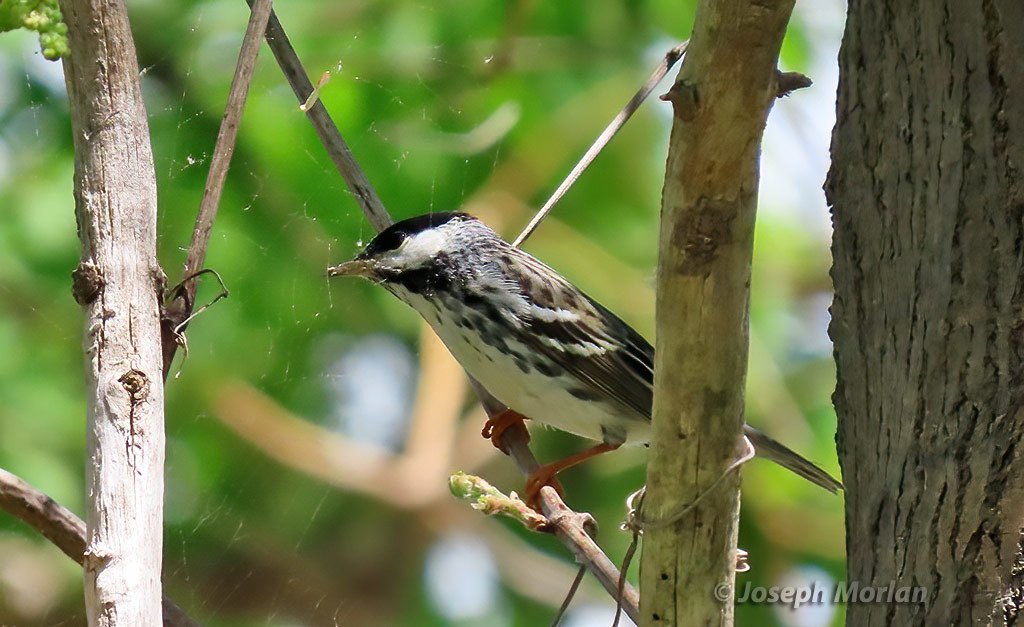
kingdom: Animalia
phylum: Chordata
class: Aves
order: Passeriformes
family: Parulidae
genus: Setophaga
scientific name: Setophaga striata
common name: Blackpoll warbler
